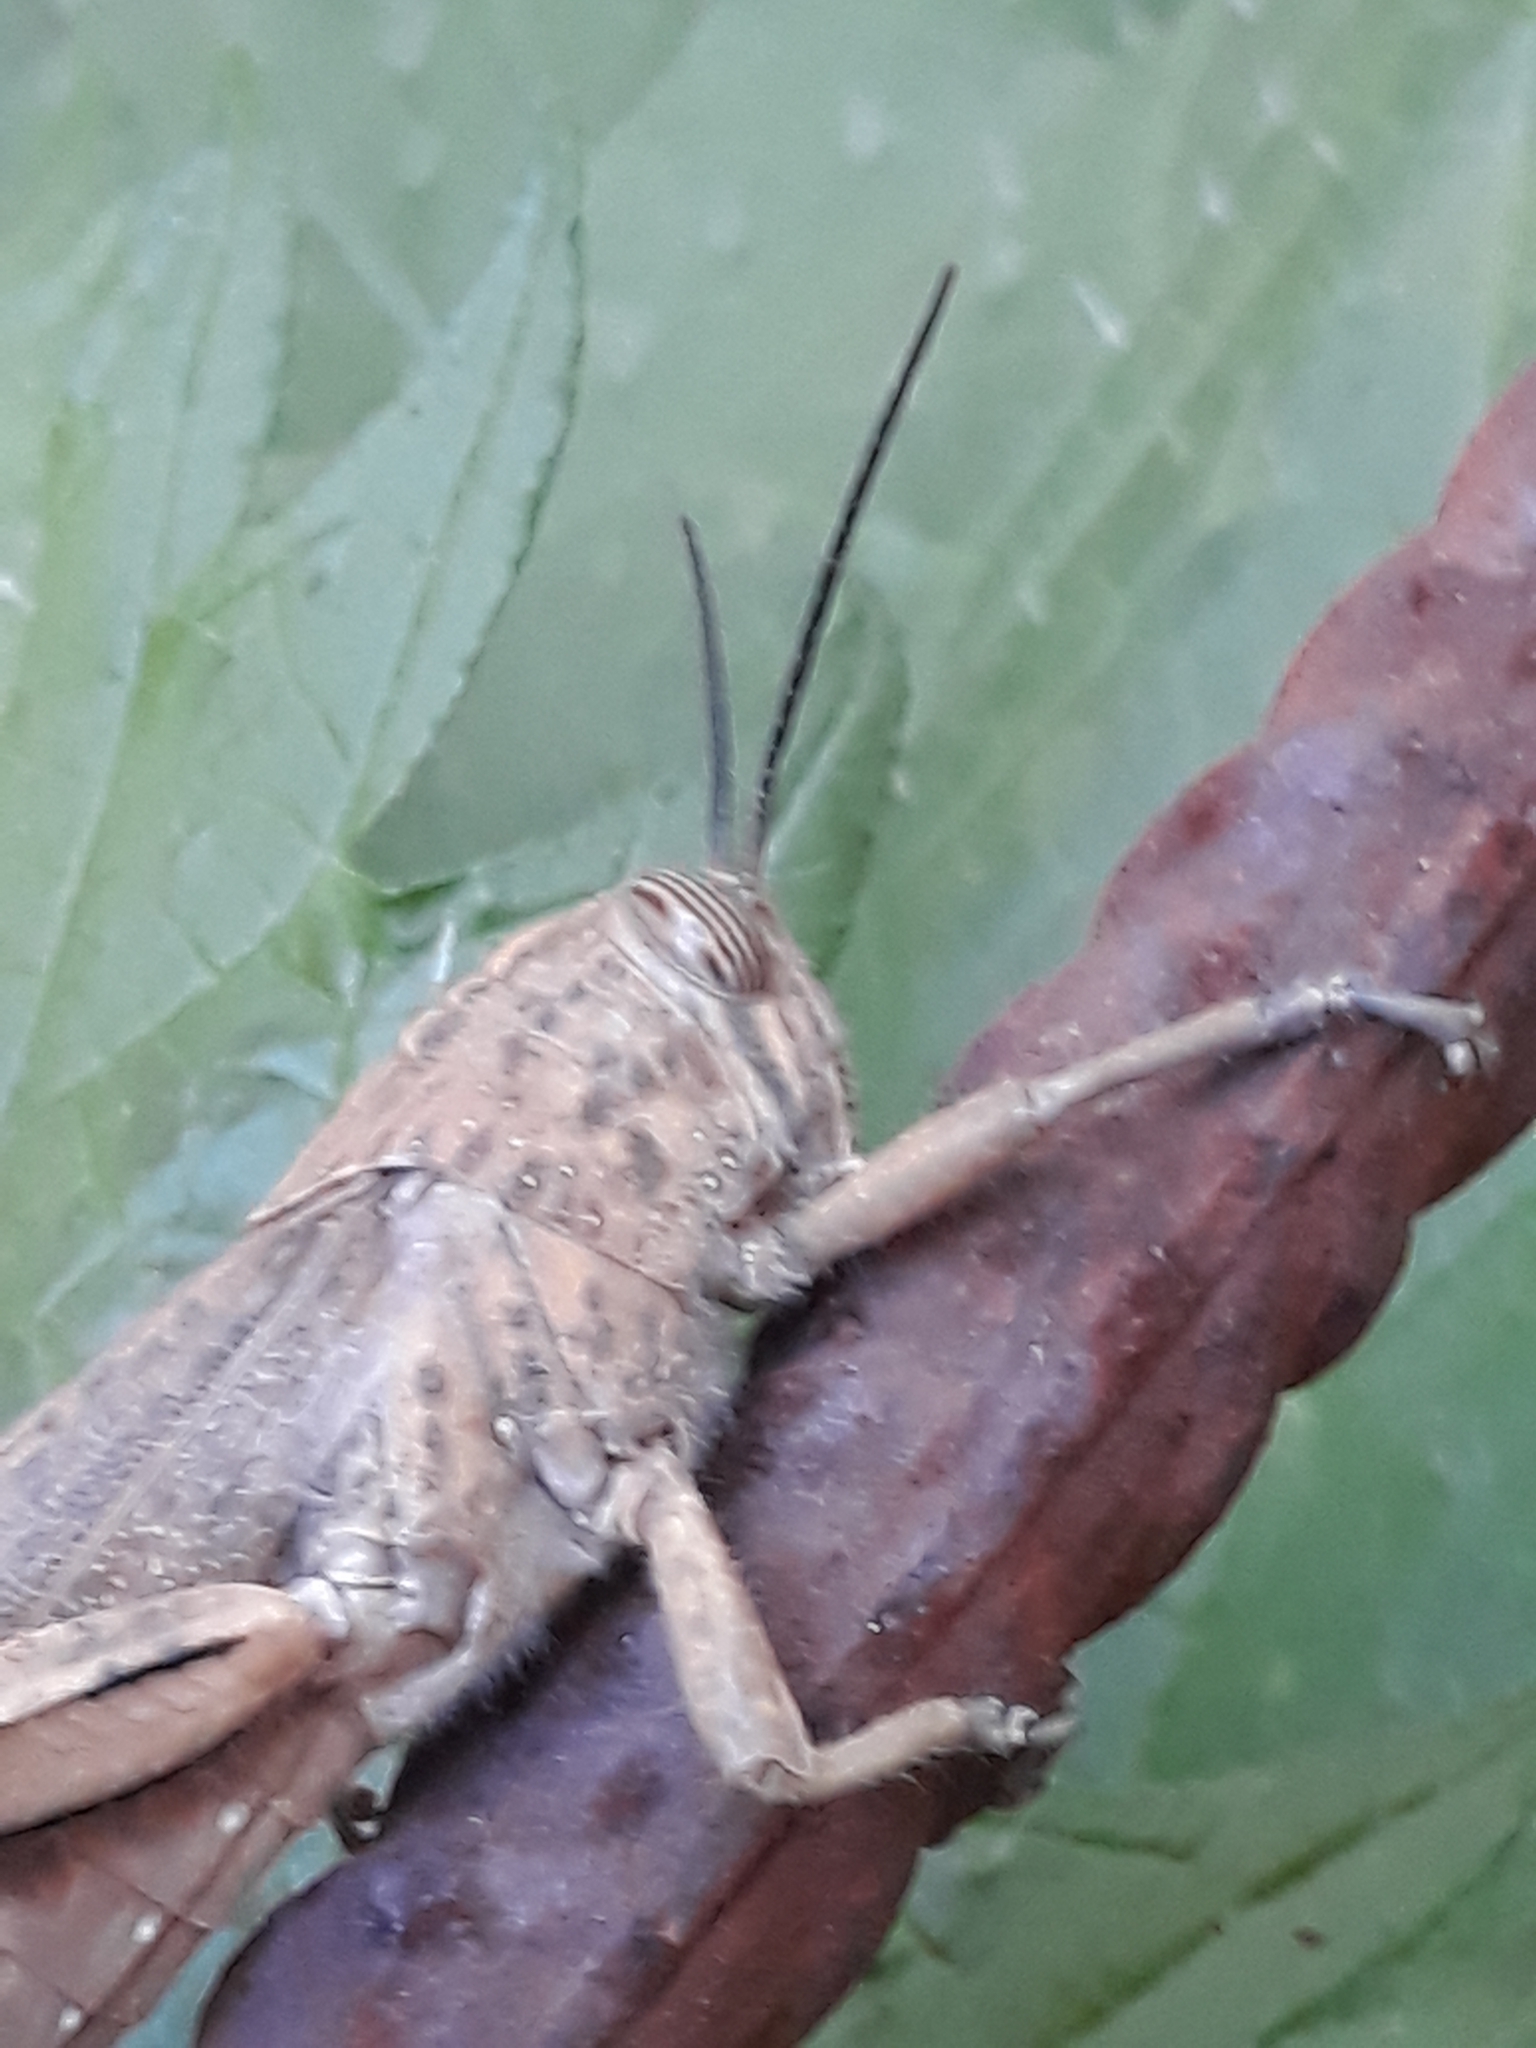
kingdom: Animalia
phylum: Arthropoda
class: Insecta
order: Orthoptera
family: Acrididae
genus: Anacridium
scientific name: Anacridium aegyptium
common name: Egyptian grasshopper
